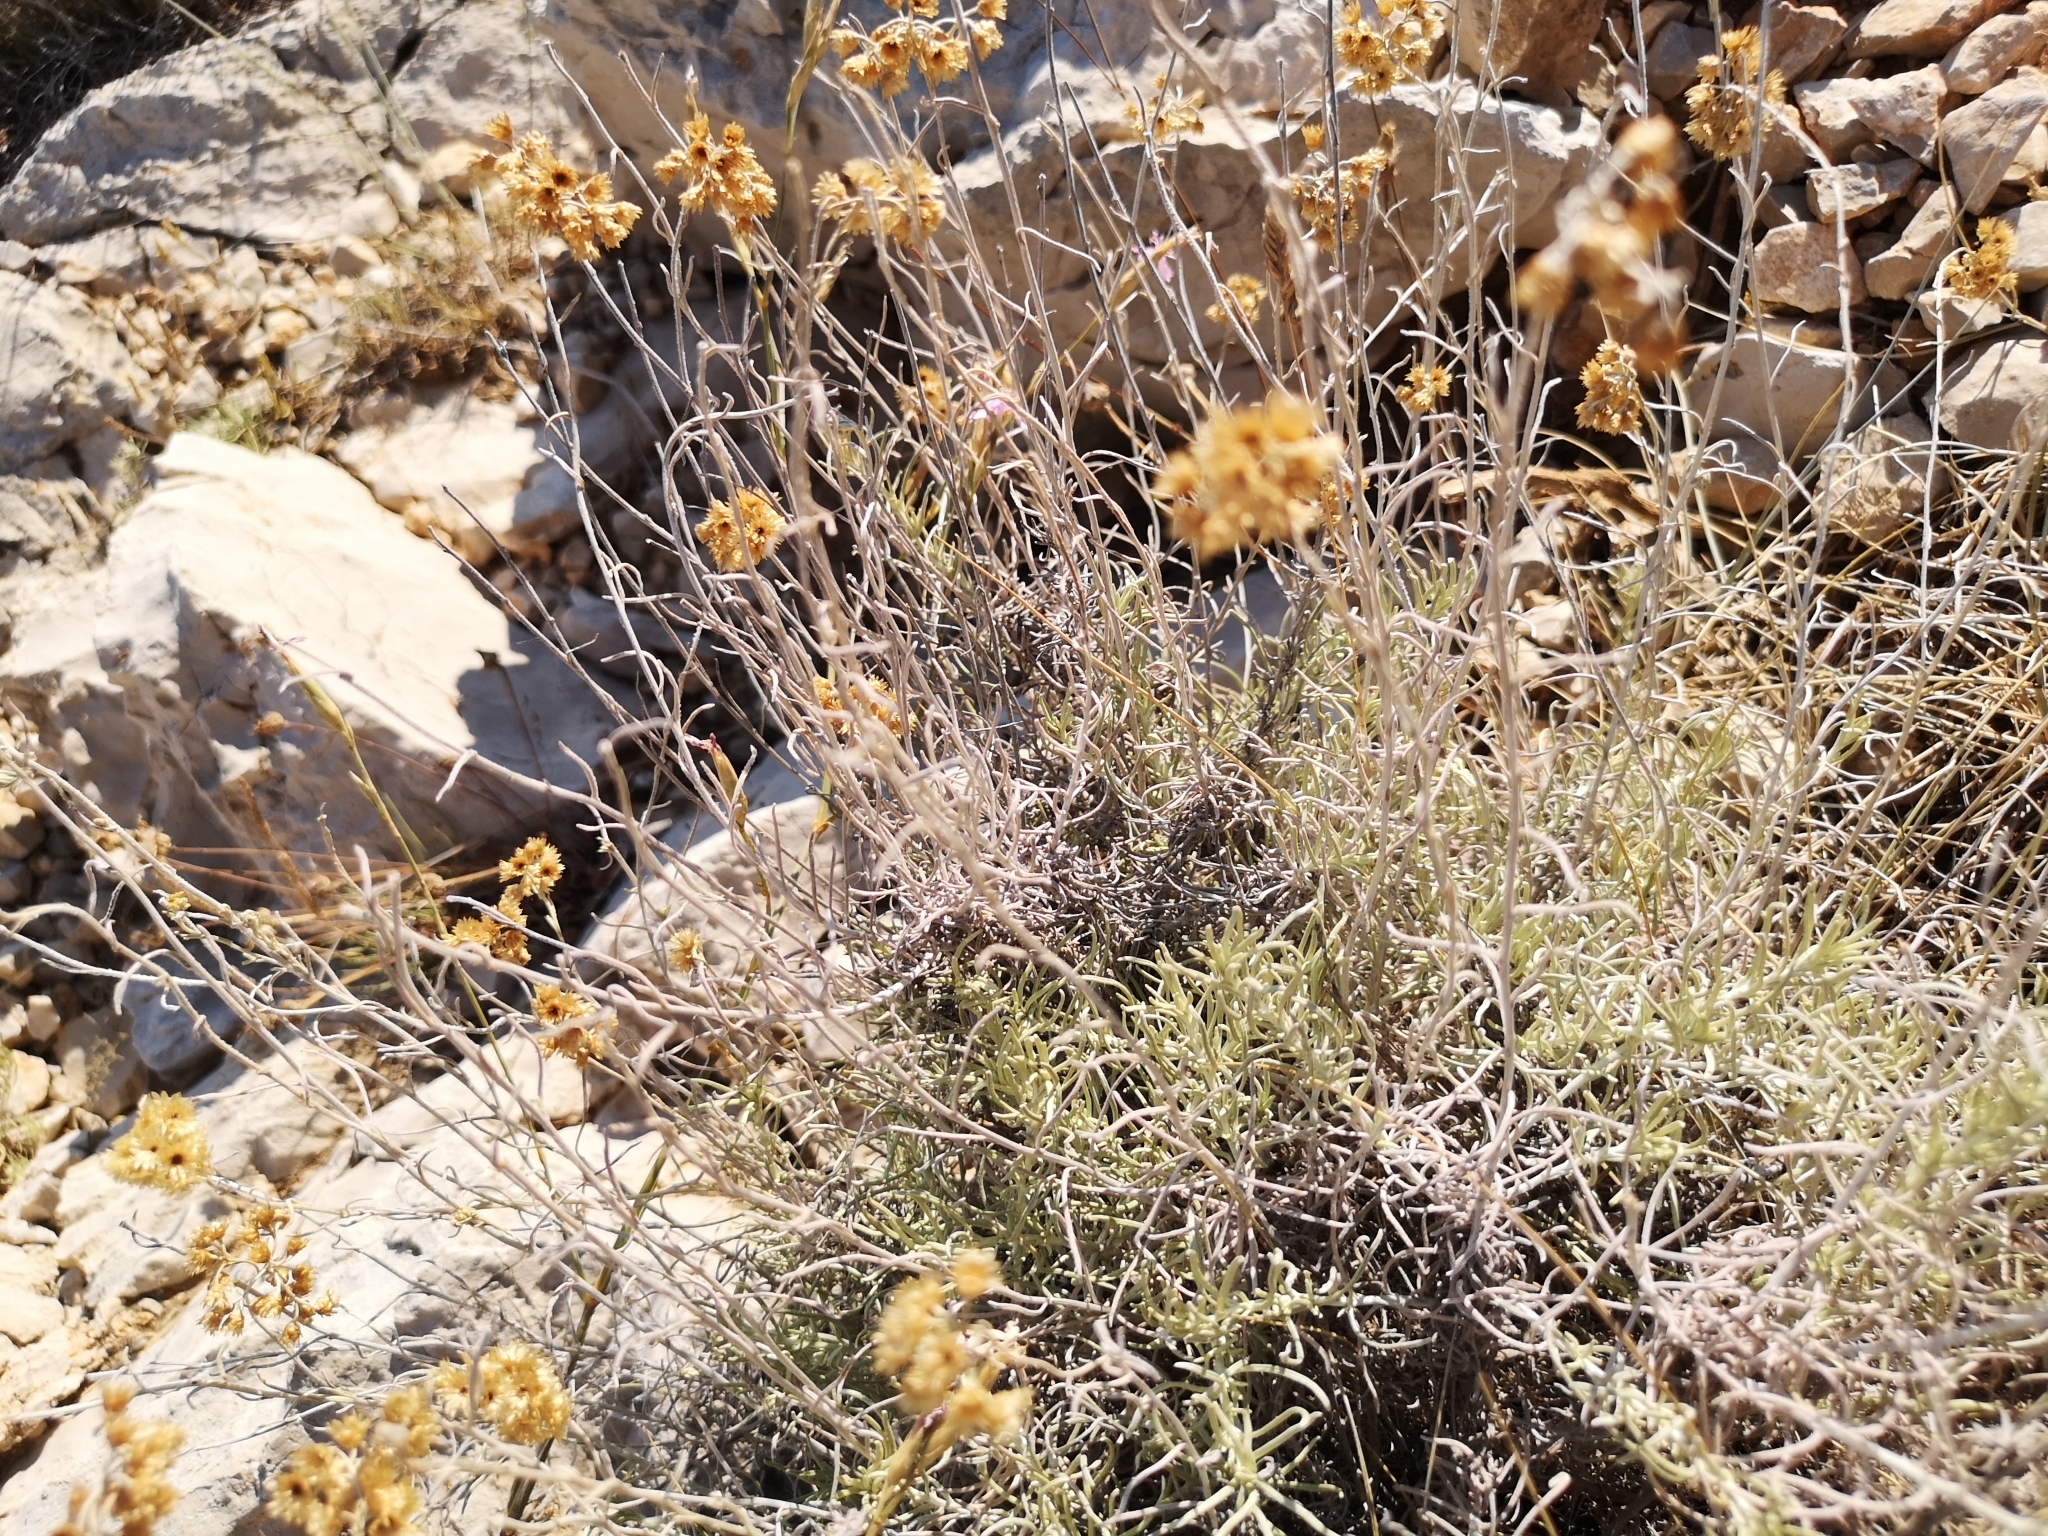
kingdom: Plantae
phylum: Tracheophyta
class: Magnoliopsida
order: Asterales
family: Asteraceae
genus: Helichrysum
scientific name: Helichrysum italicum
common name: Curryplant
